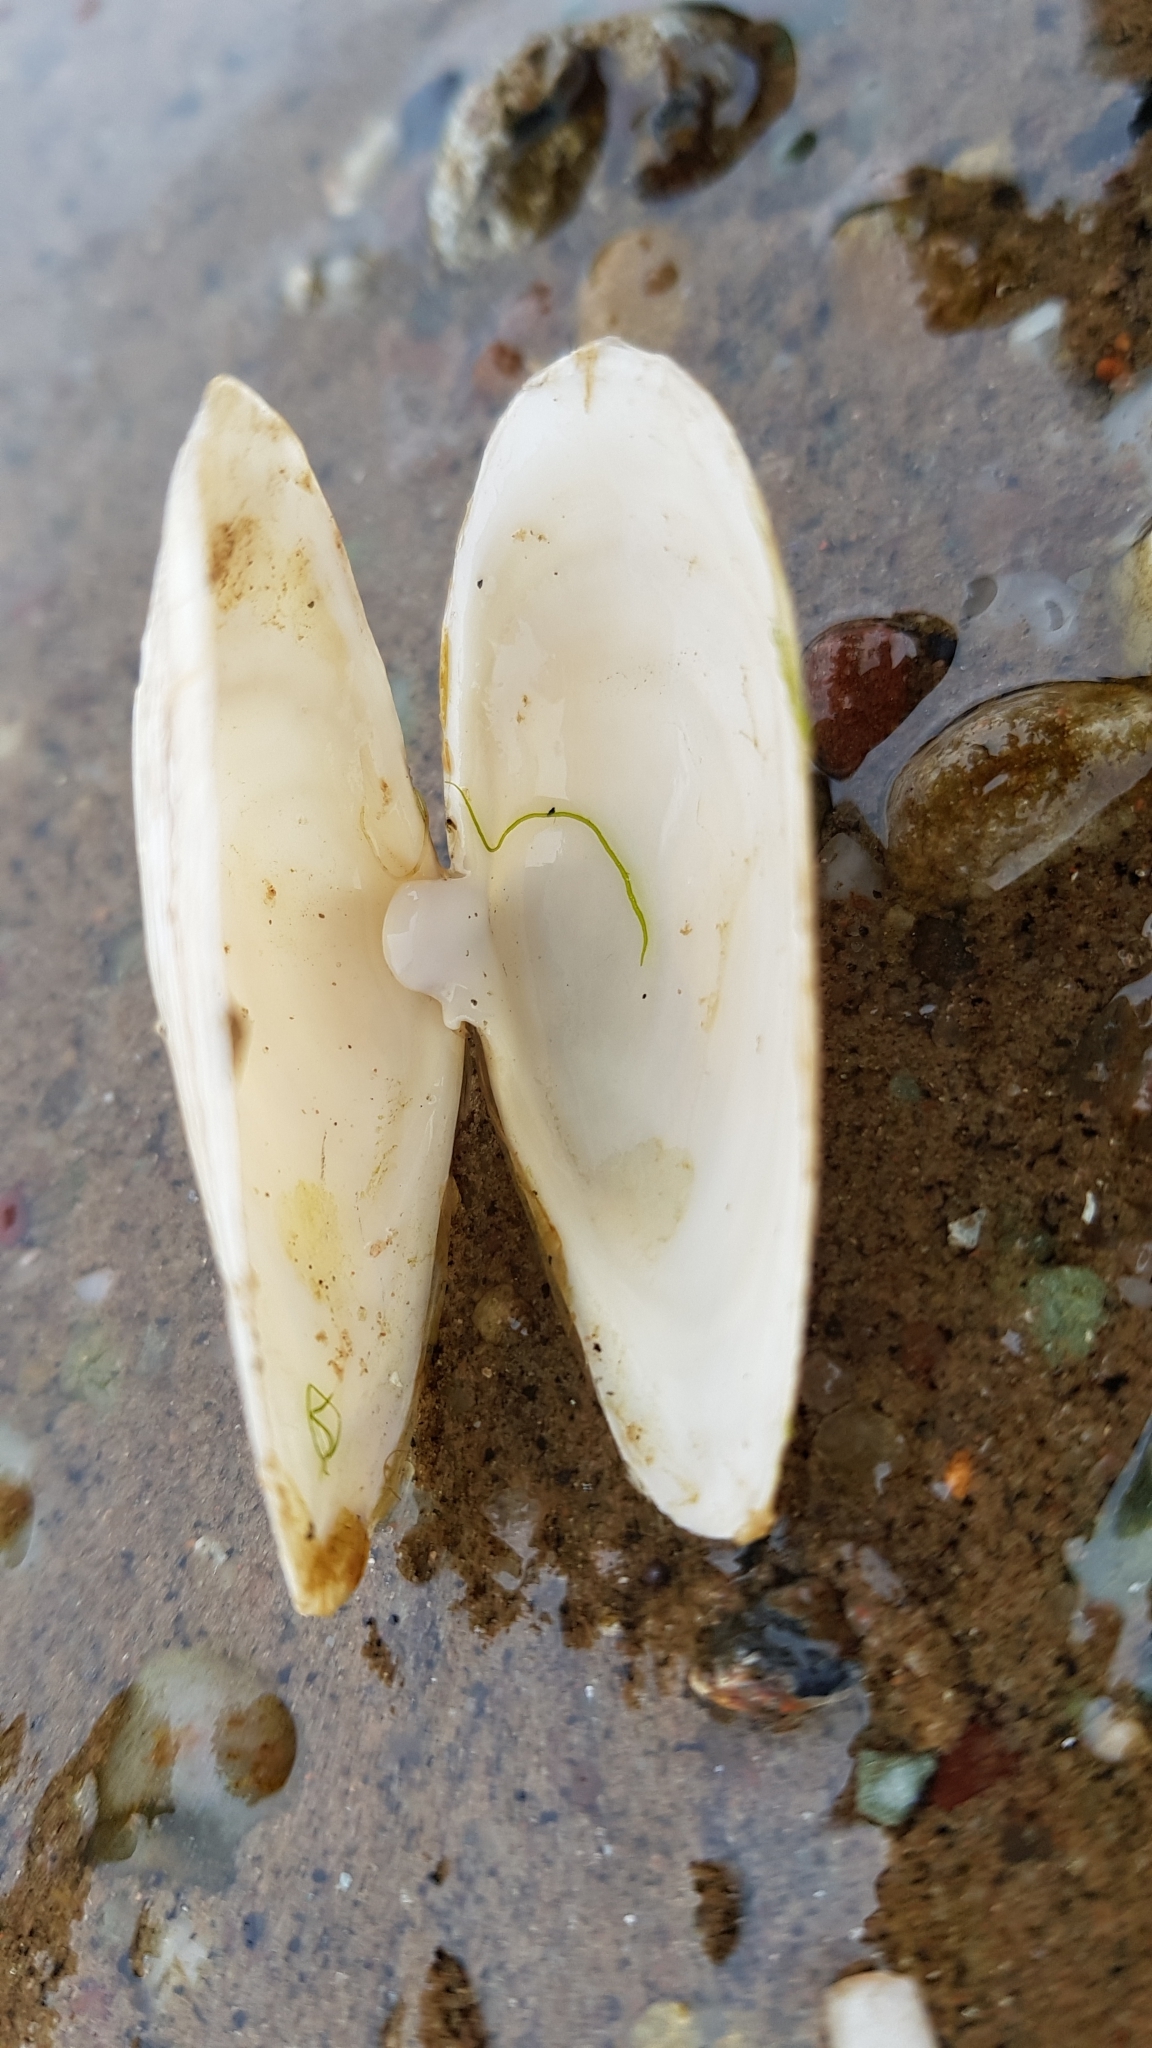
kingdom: Animalia
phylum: Mollusca
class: Bivalvia
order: Myida
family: Myidae
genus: Mya
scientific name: Mya arenaria
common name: Soft-shelled clam
